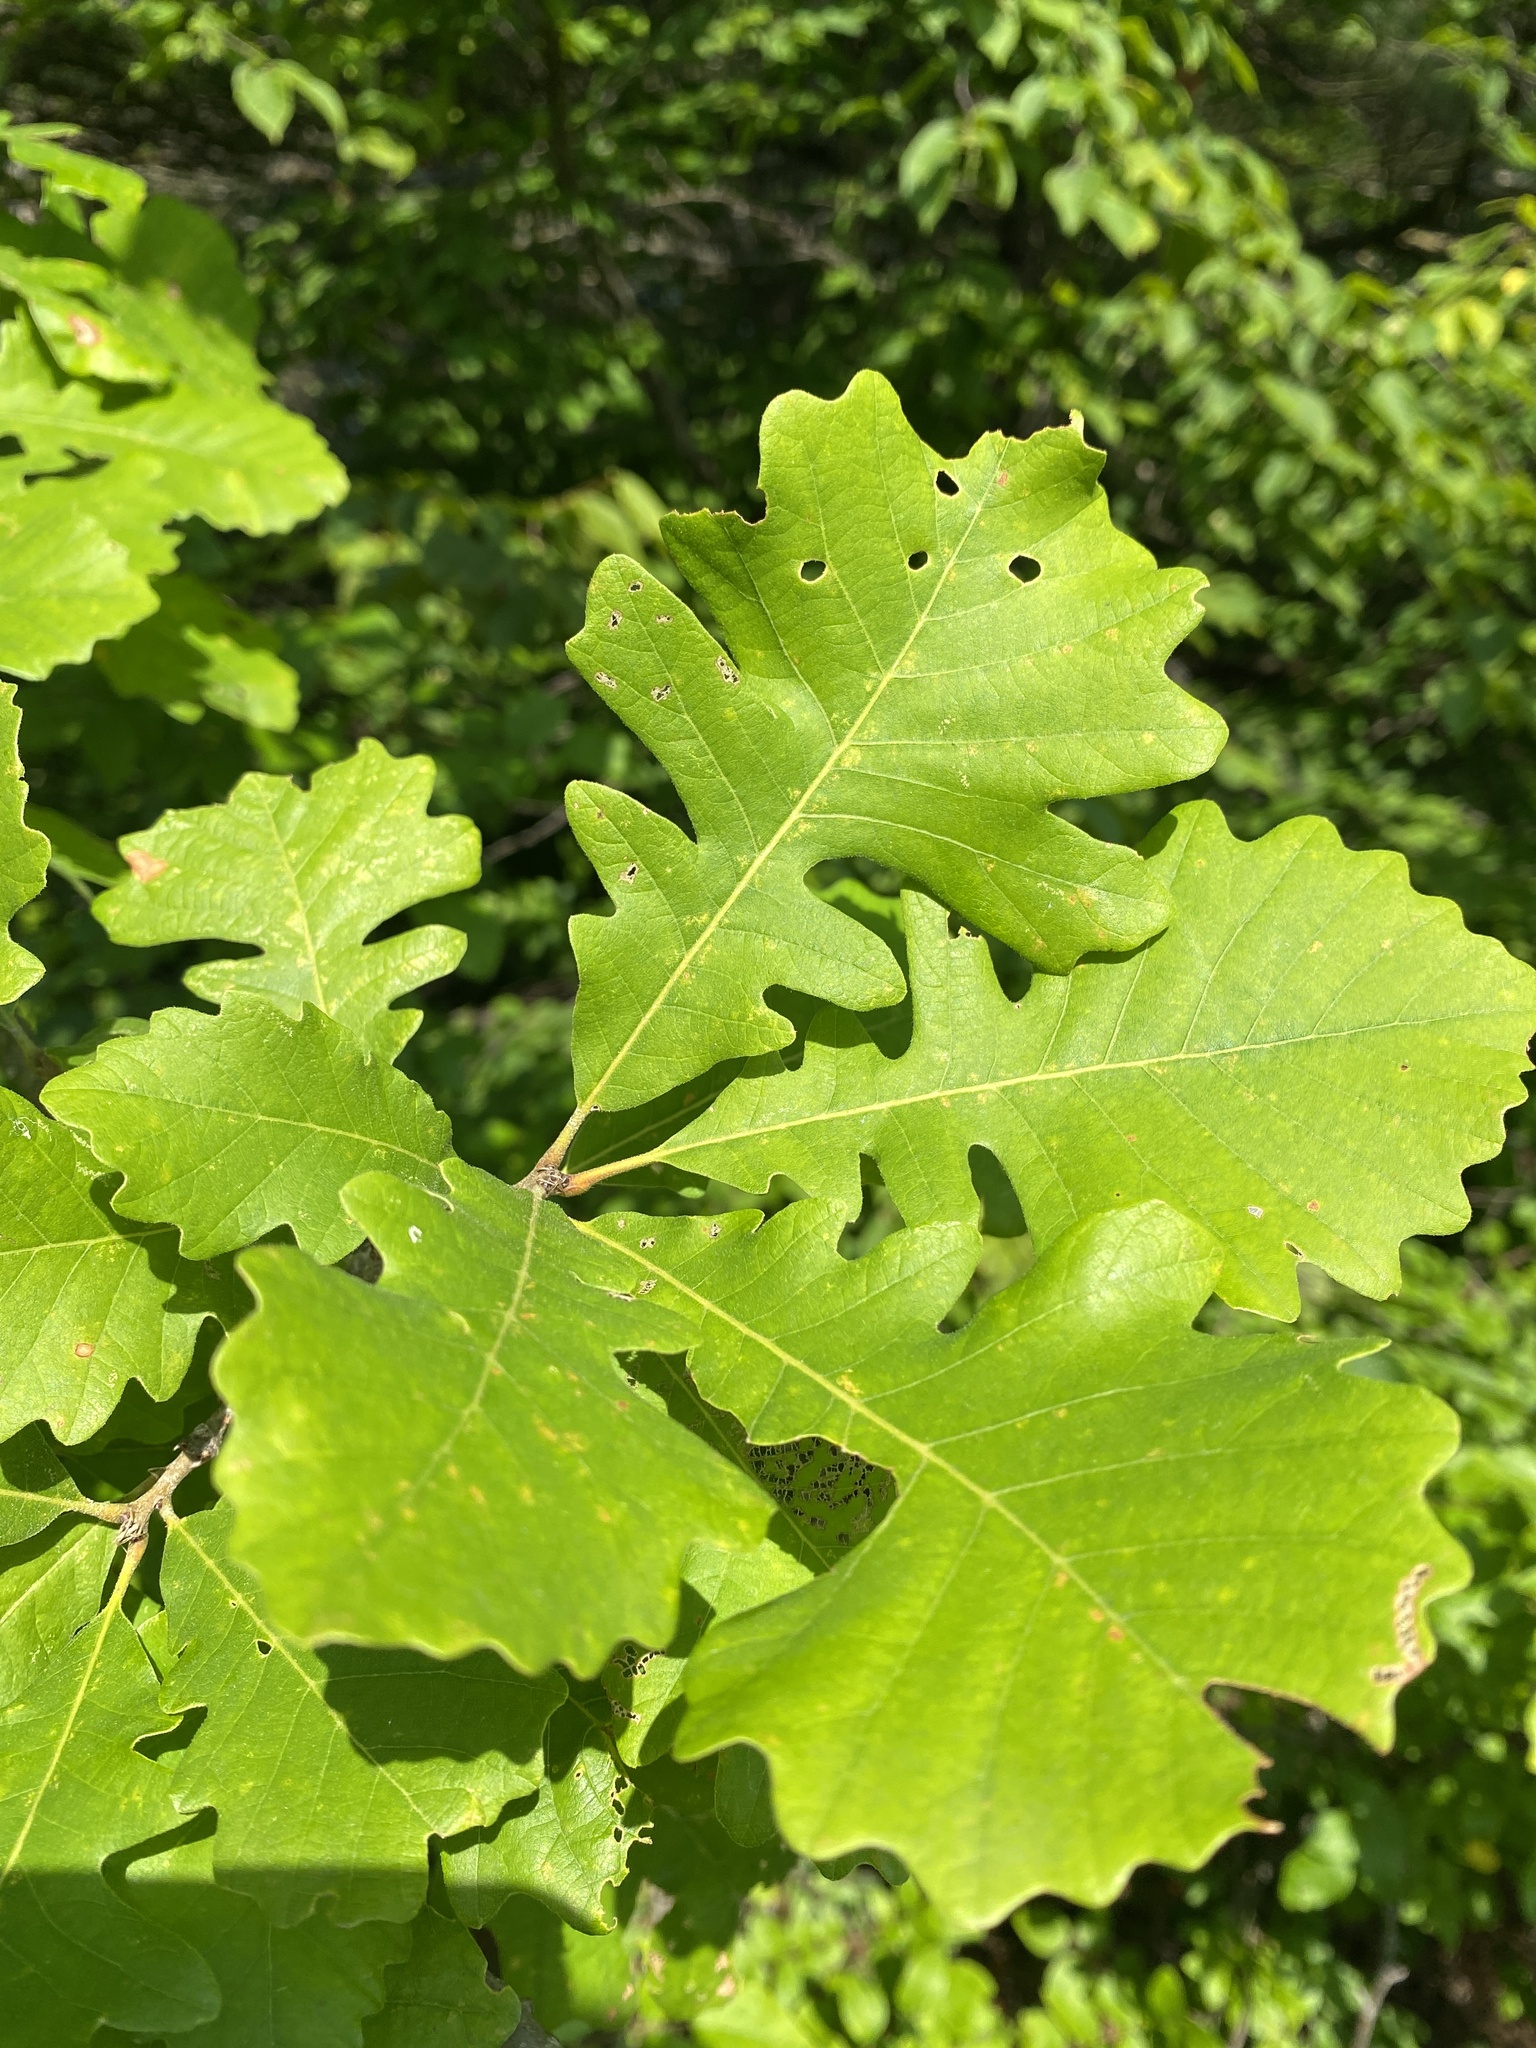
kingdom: Plantae
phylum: Tracheophyta
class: Magnoliopsida
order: Fagales
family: Fagaceae
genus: Quercus
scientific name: Quercus macrocarpa
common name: Bur oak
